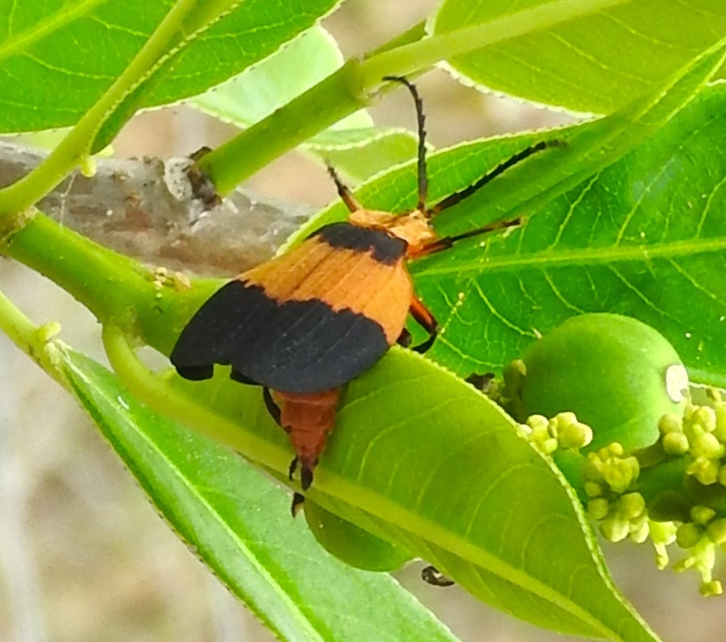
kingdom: Animalia
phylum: Arthropoda
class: Insecta
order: Coleoptera
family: Lycidae
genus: Lycus
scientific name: Lycus
